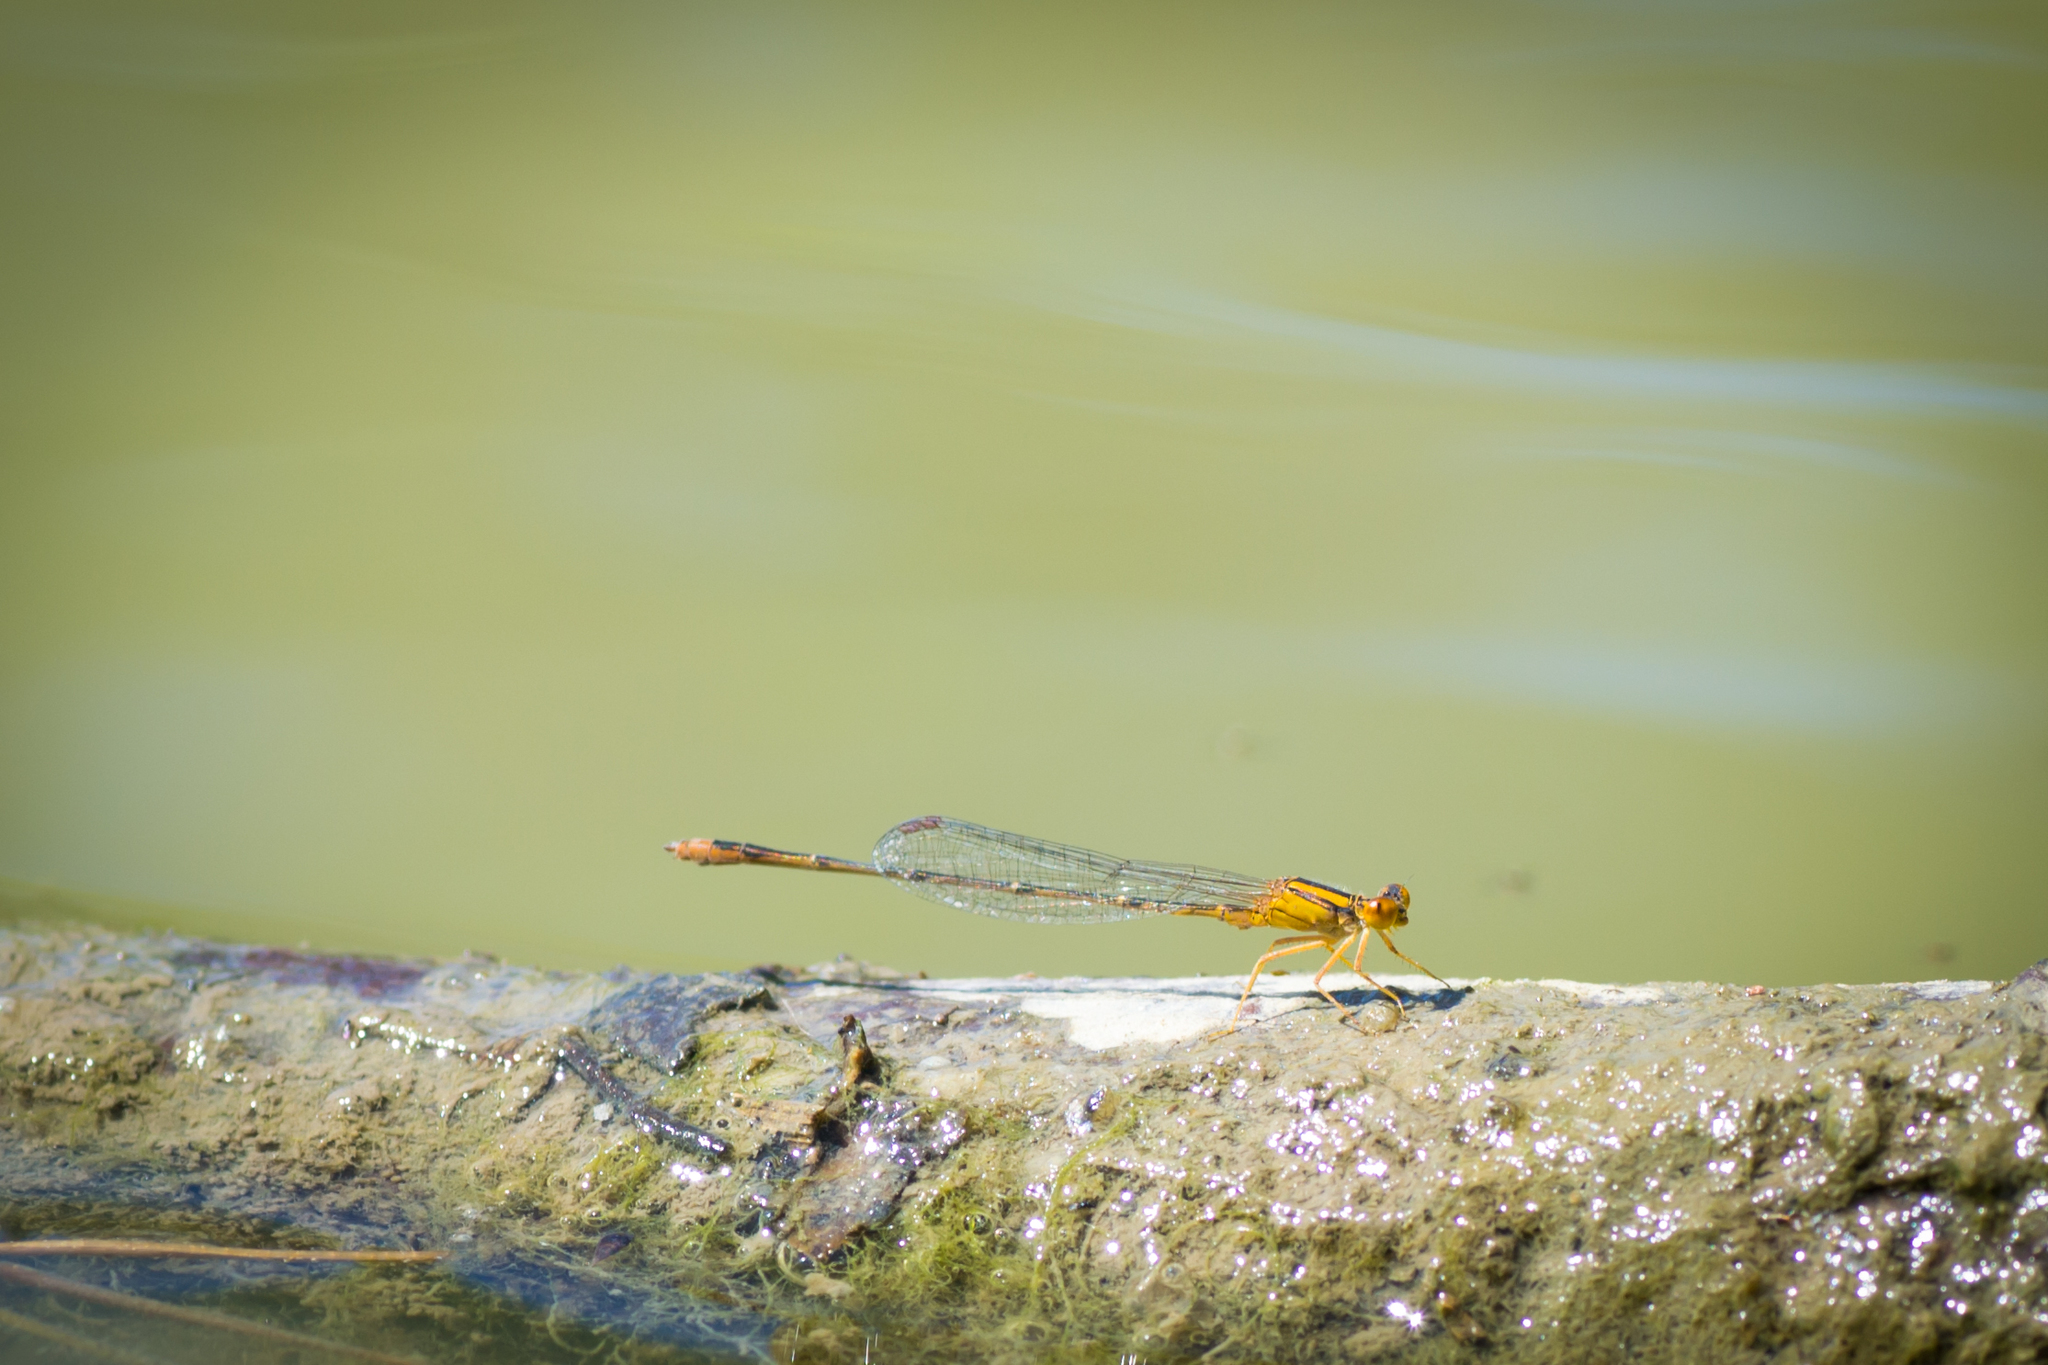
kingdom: Animalia
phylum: Arthropoda
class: Insecta
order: Odonata
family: Coenagrionidae
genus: Enallagma
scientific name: Enallagma signatum
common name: Orange bluet
